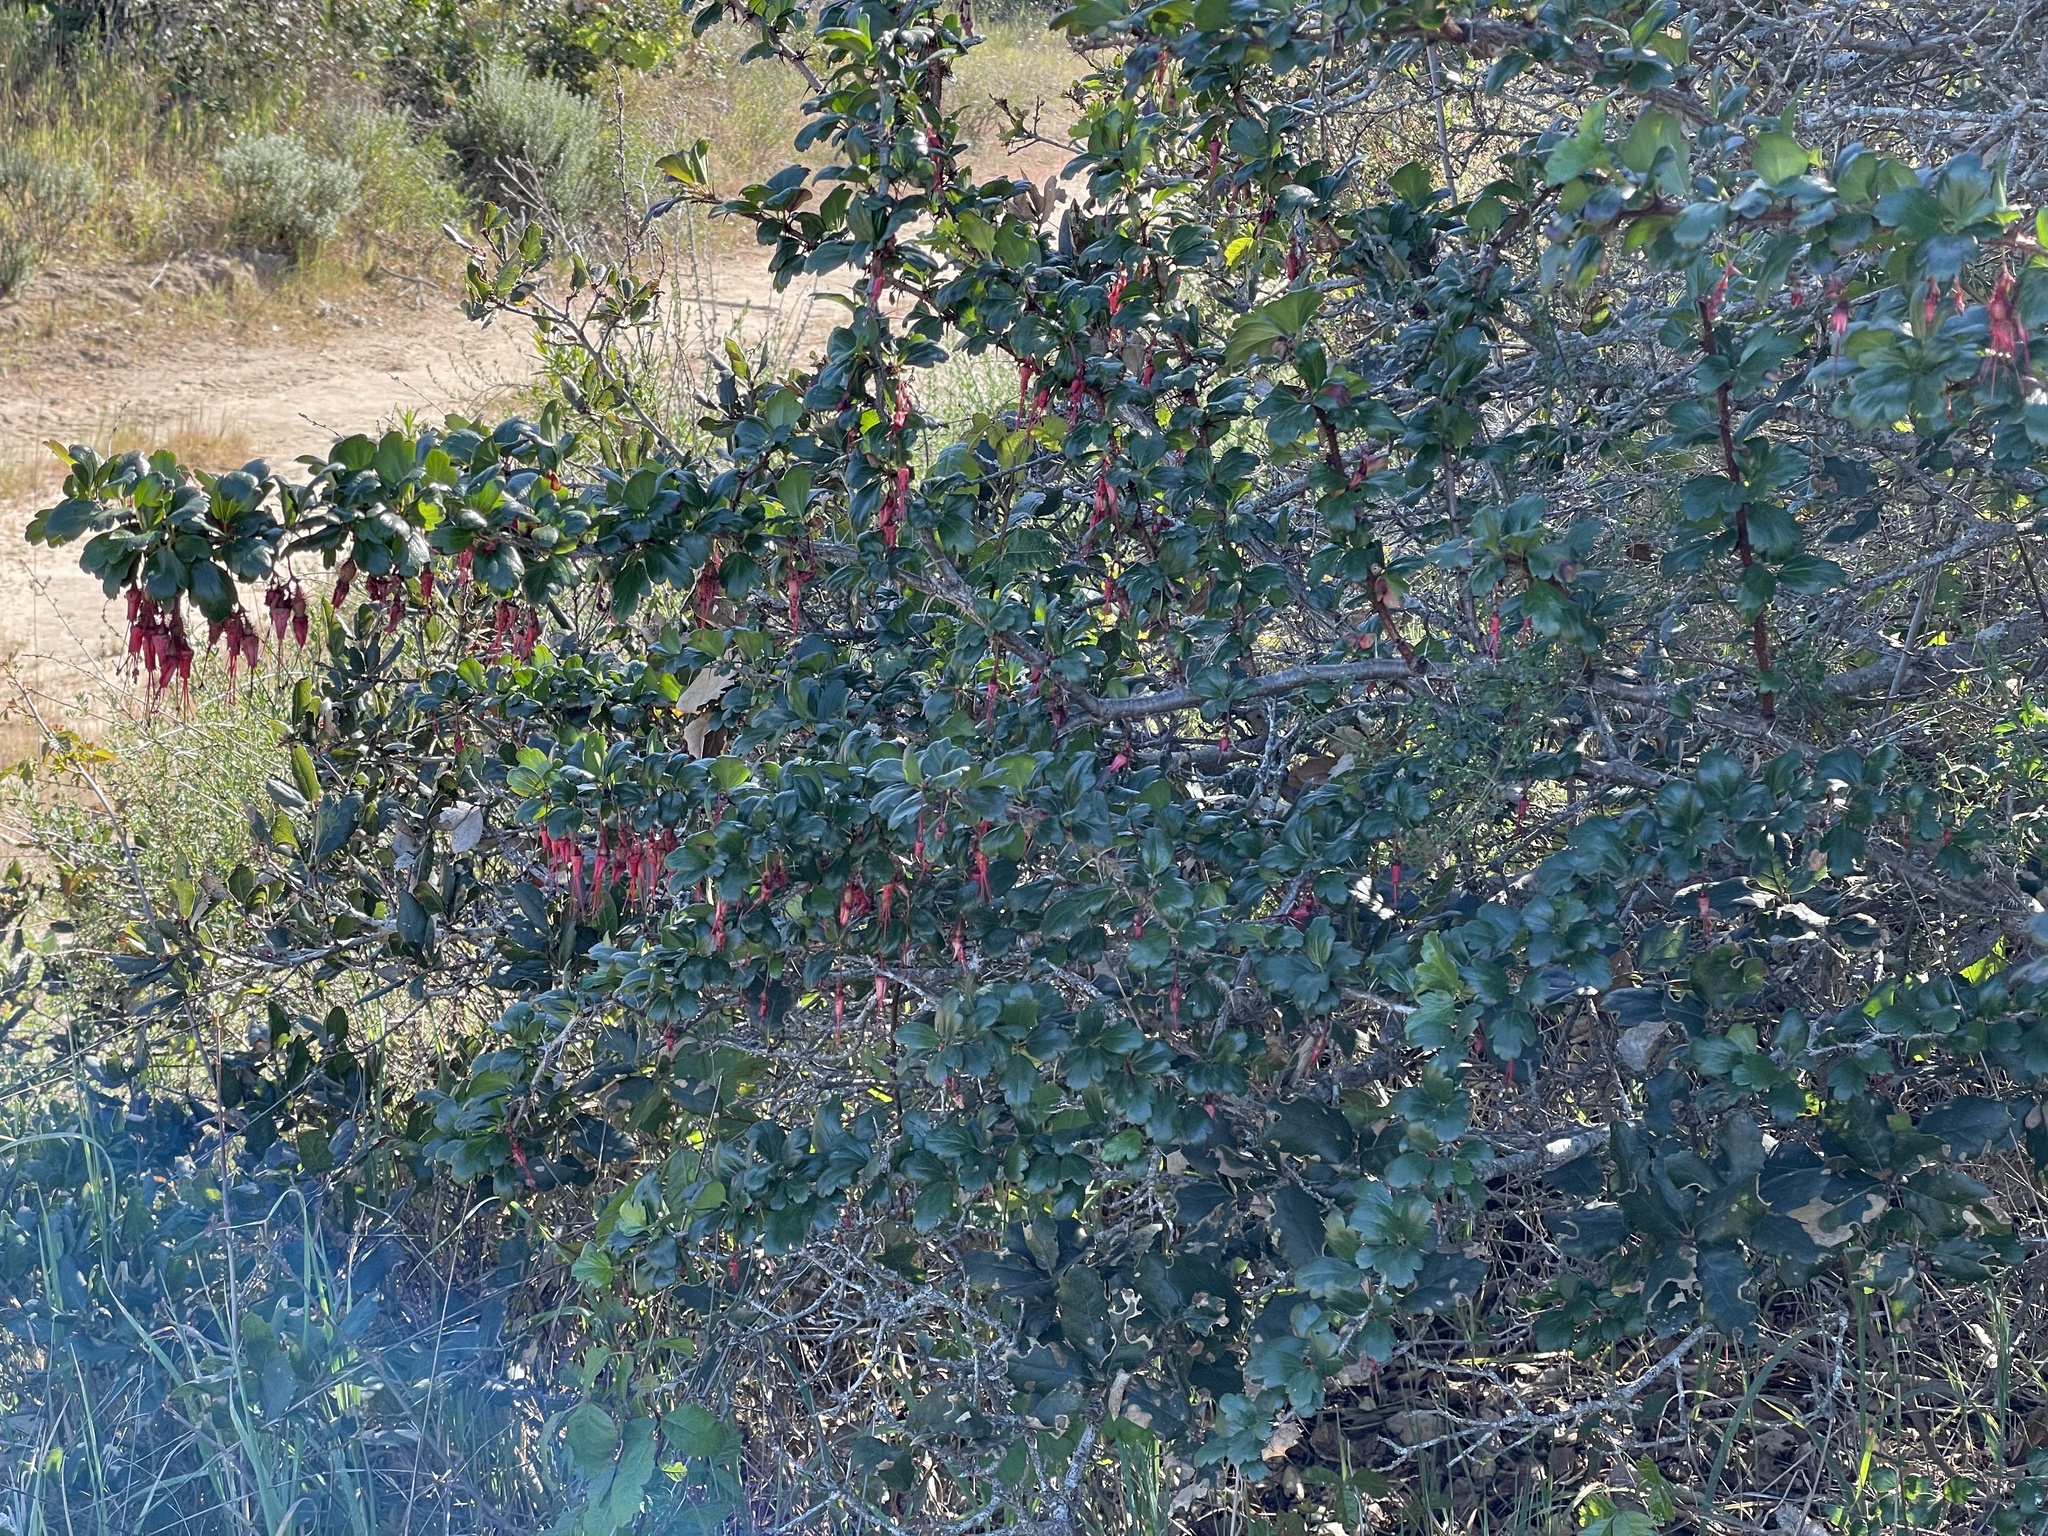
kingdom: Plantae
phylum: Tracheophyta
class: Magnoliopsida
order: Saxifragales
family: Grossulariaceae
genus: Ribes
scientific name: Ribes speciosum
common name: Fuchsia-flower gooseberry
